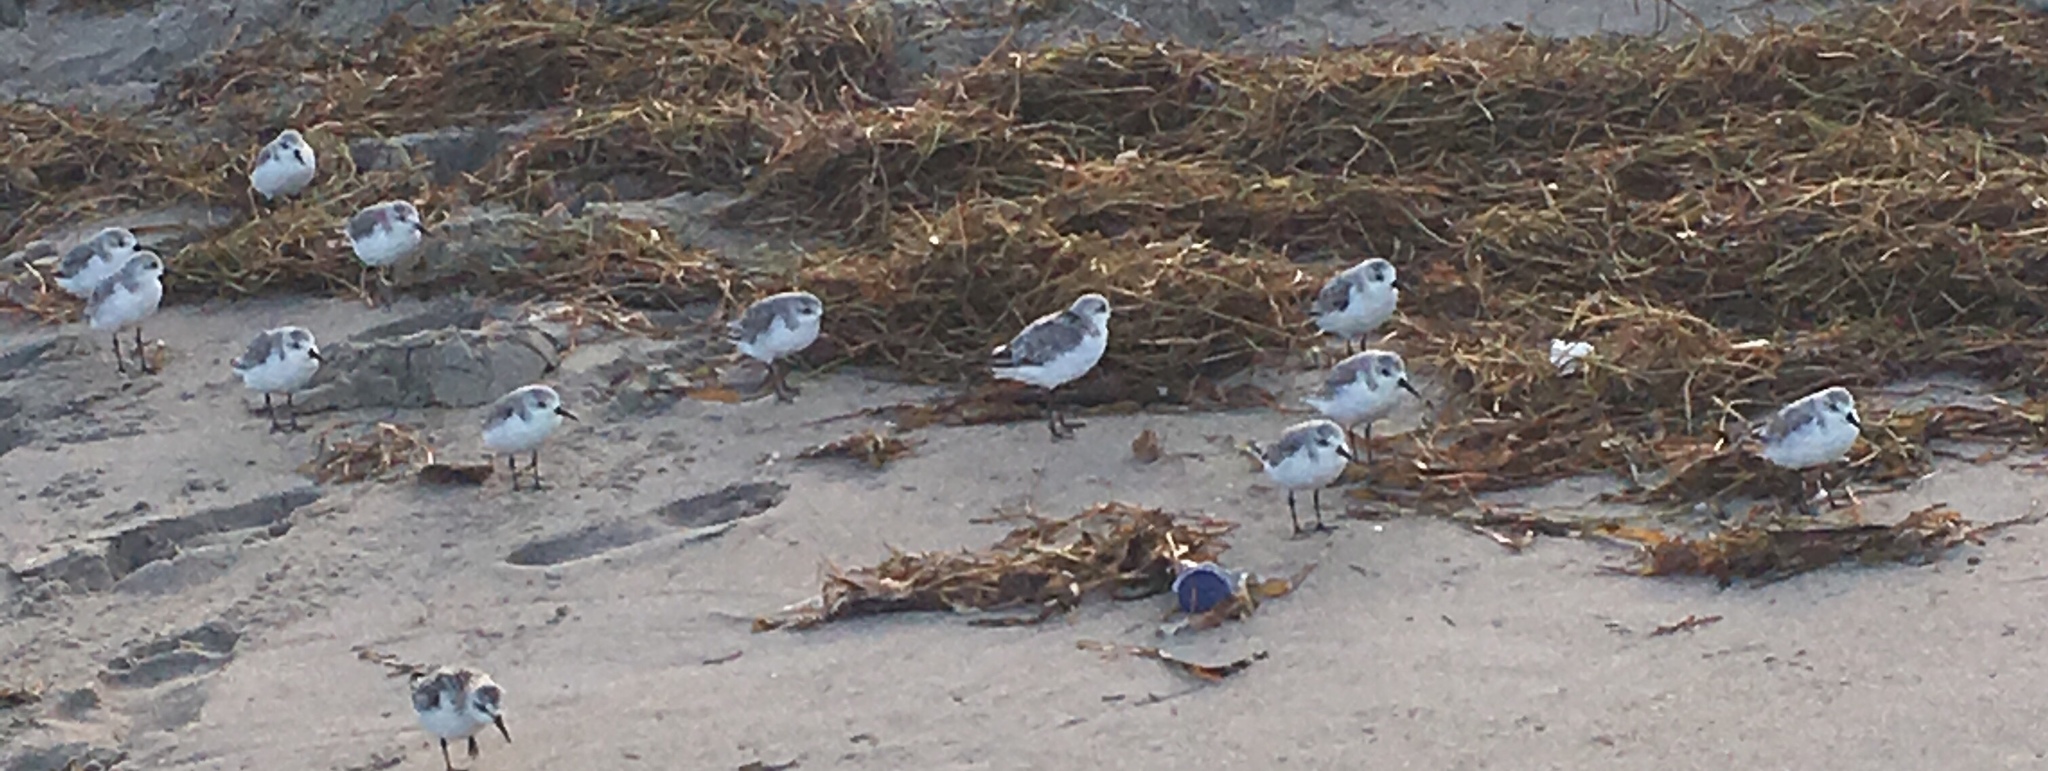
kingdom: Animalia
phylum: Chordata
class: Aves
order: Charadriiformes
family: Scolopacidae
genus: Calidris
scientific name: Calidris alba
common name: Sanderling
